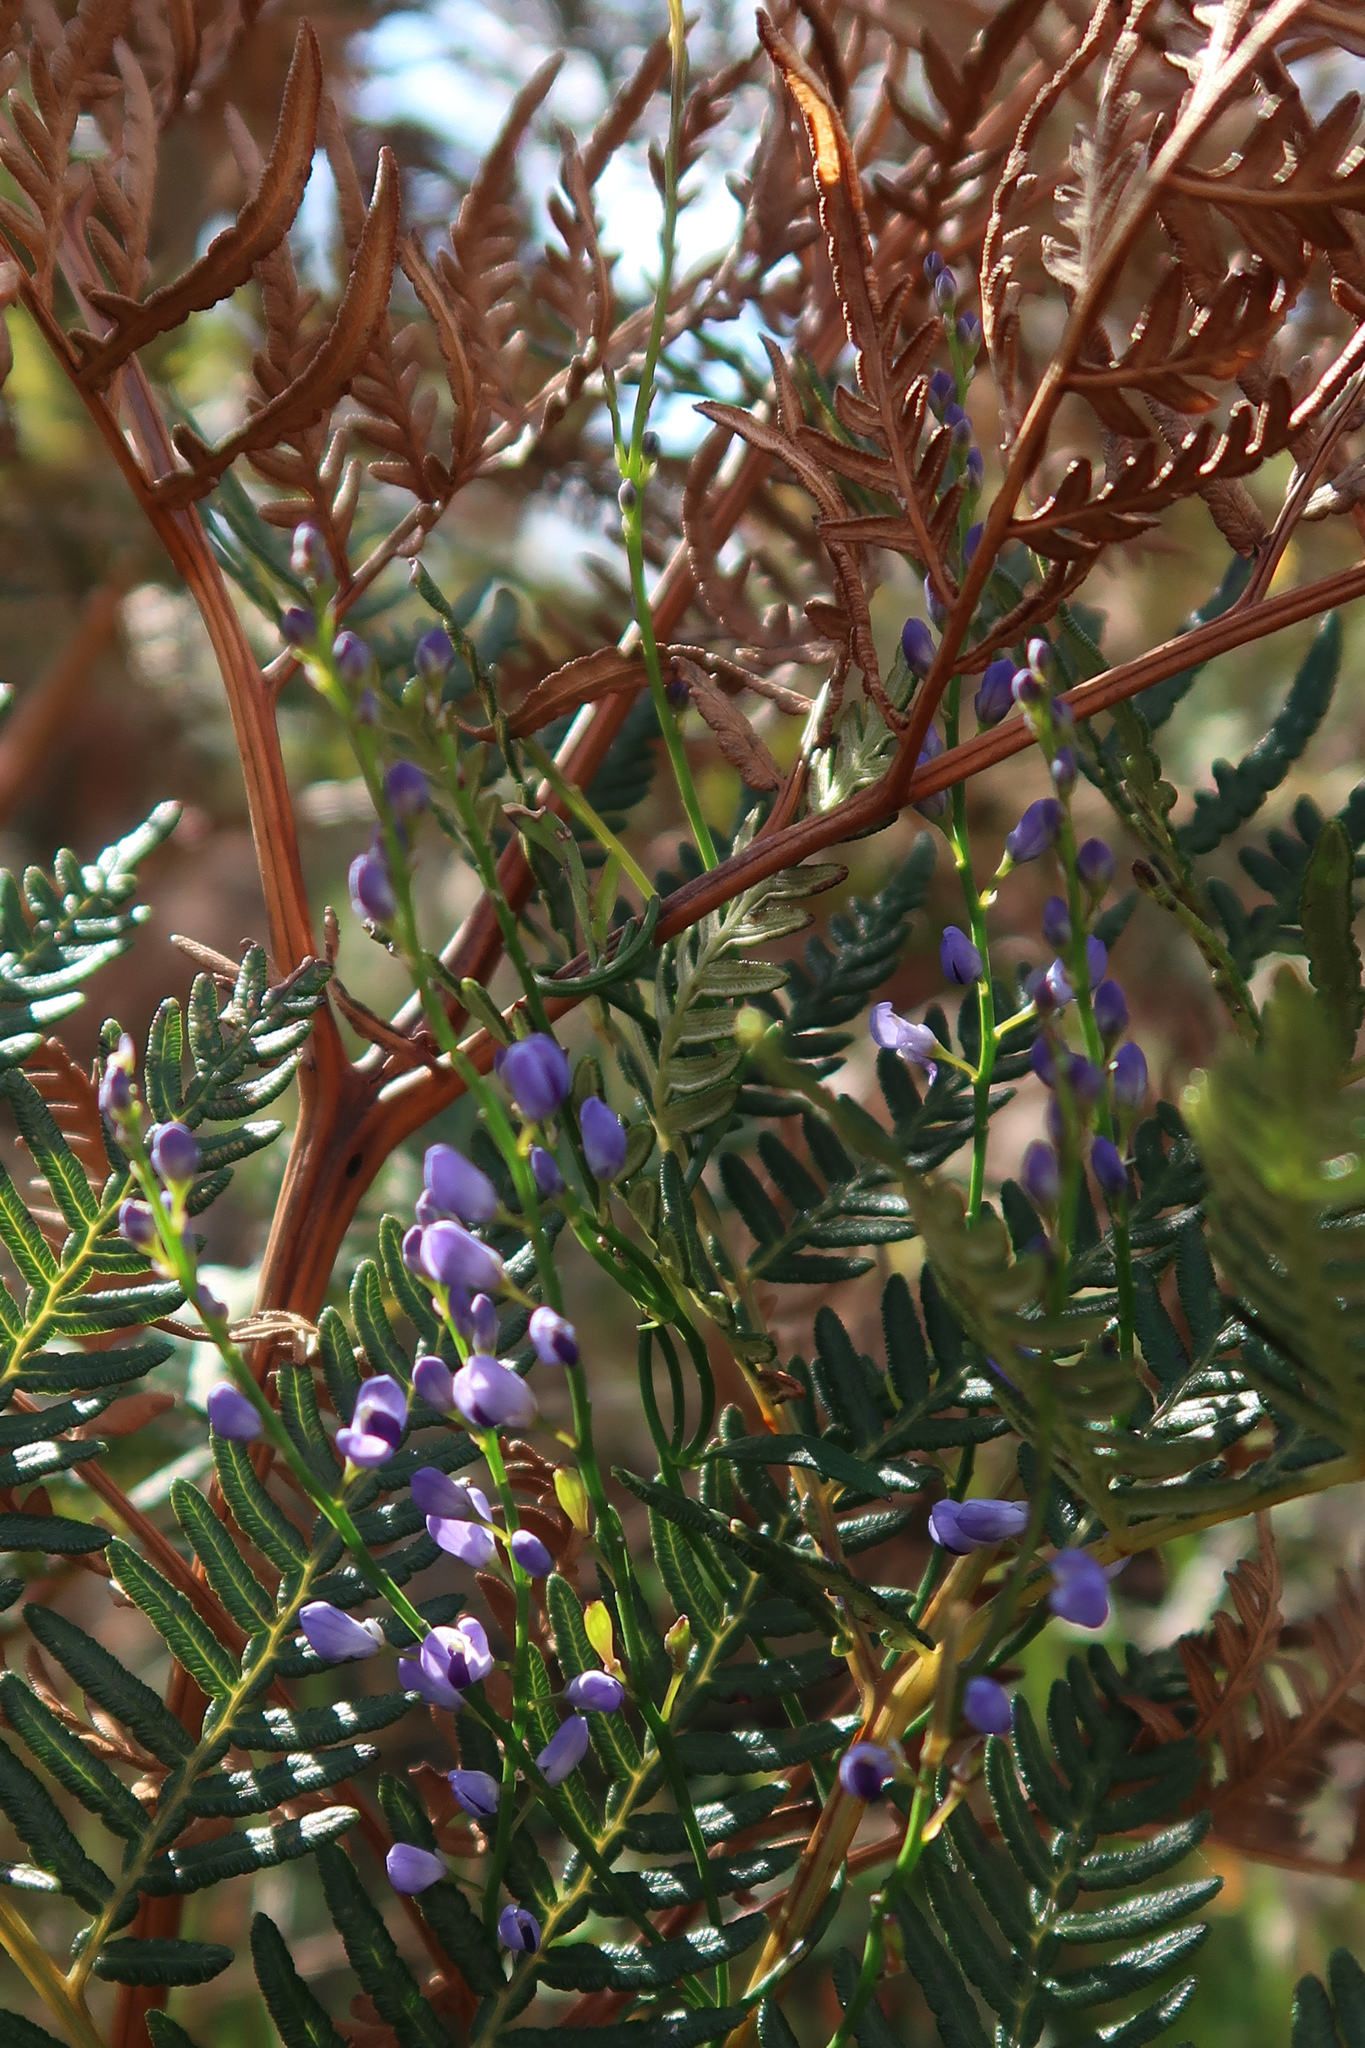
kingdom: Plantae
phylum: Tracheophyta
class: Magnoliopsida
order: Fabales
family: Polygalaceae
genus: Comesperma
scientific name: Comesperma volubile
